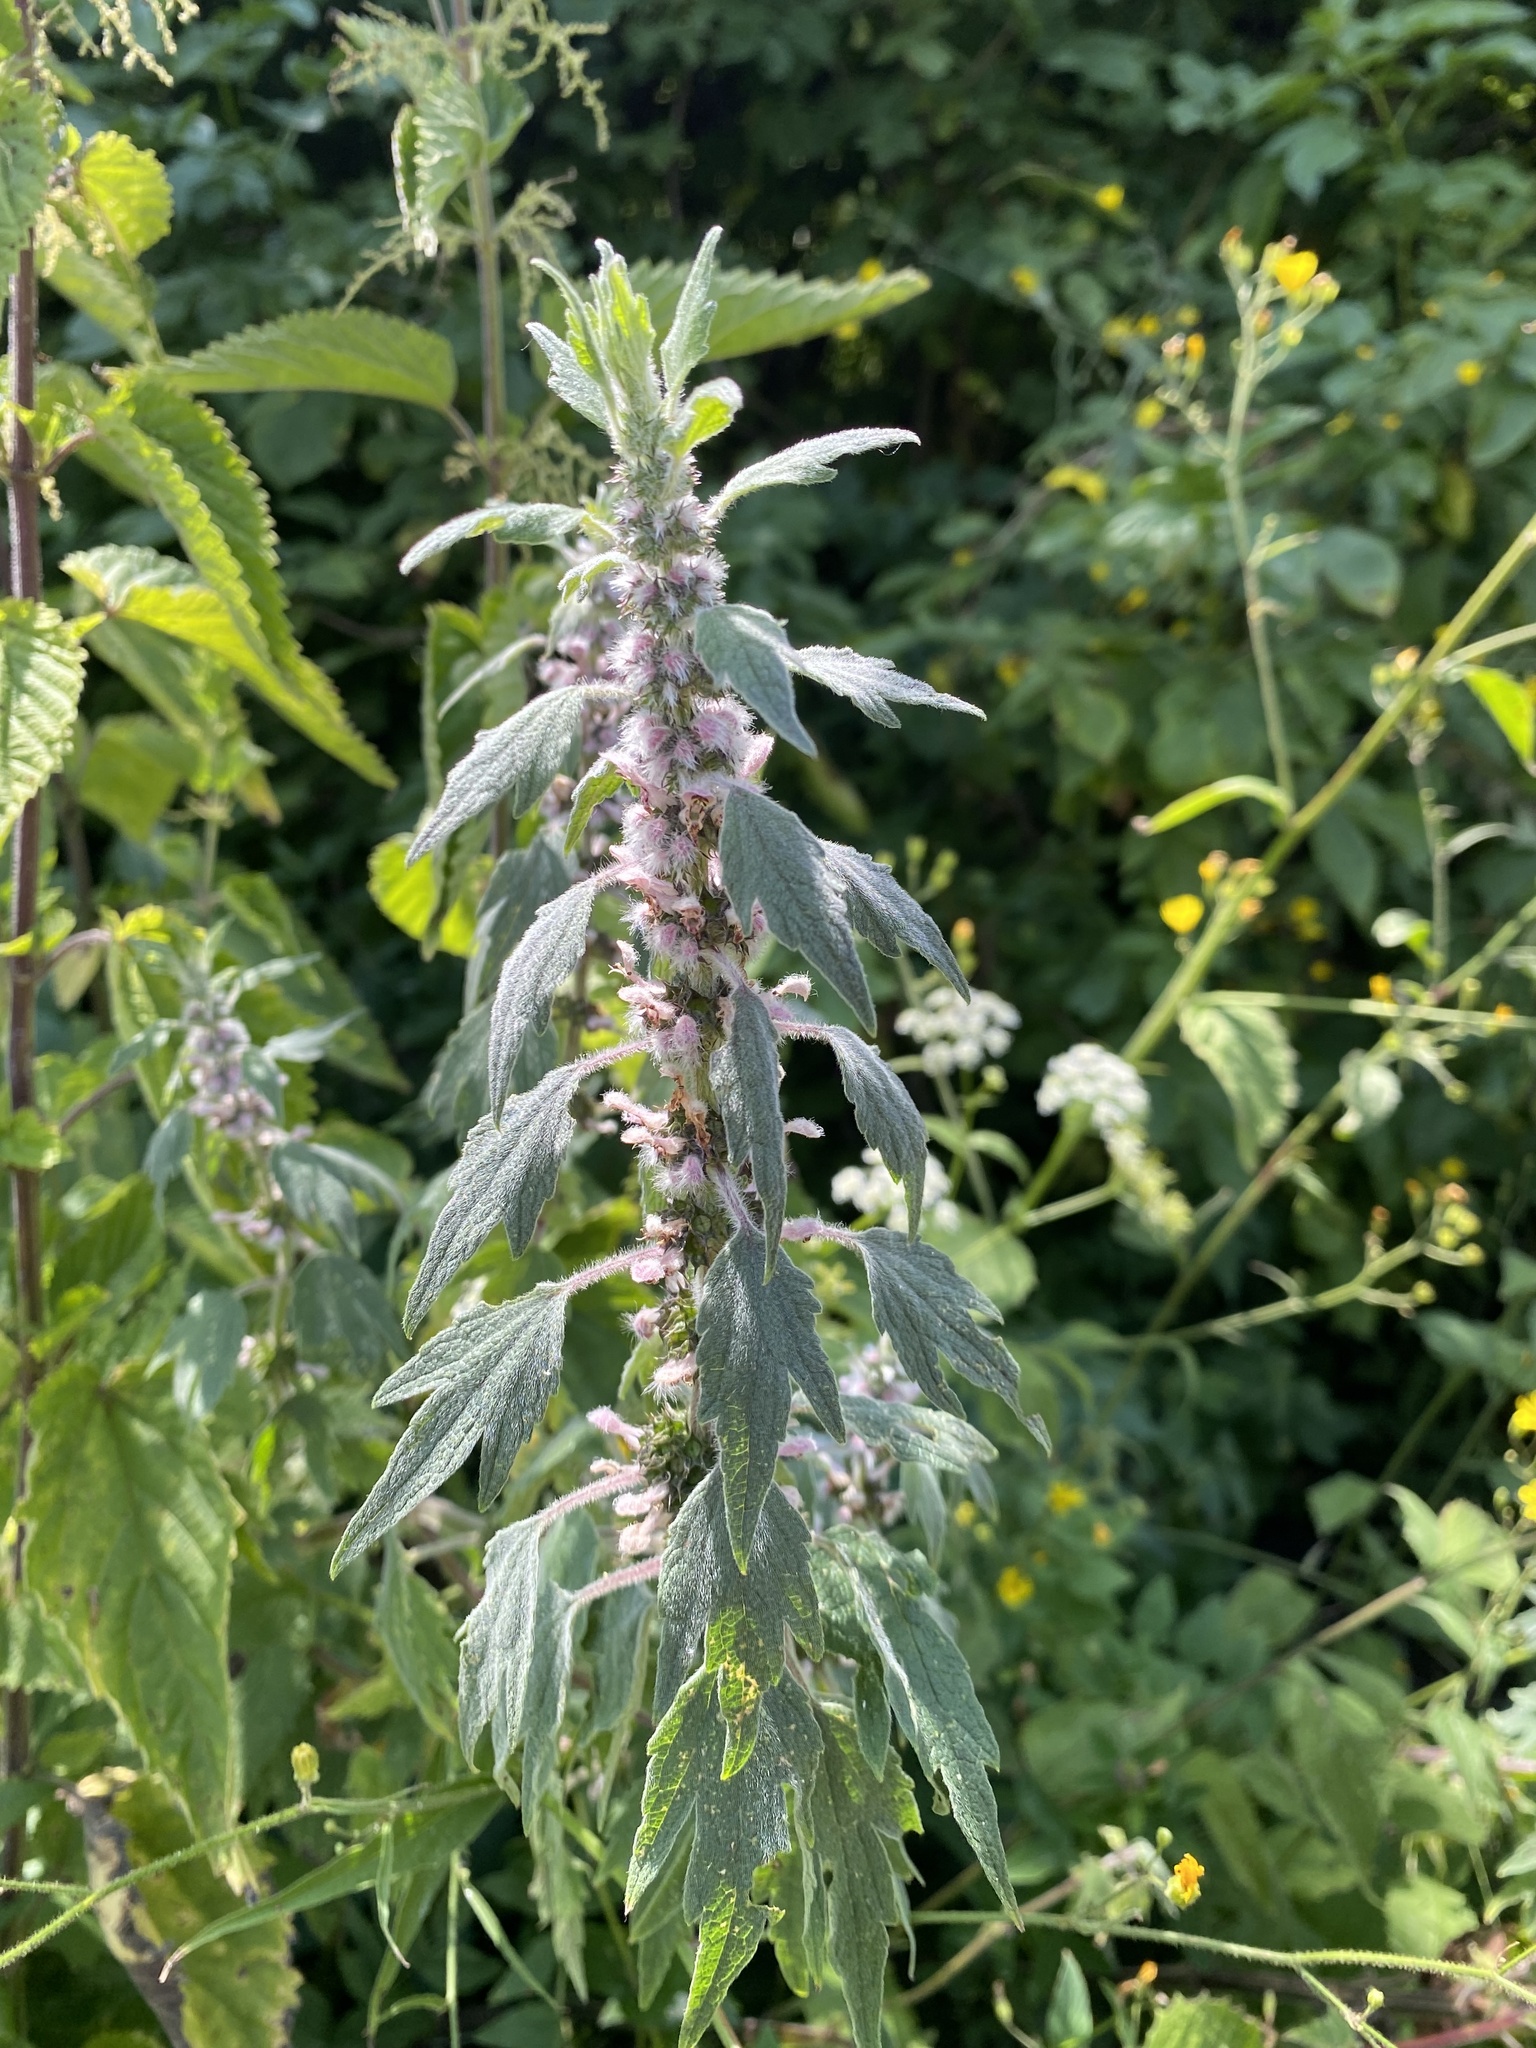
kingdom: Plantae
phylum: Tracheophyta
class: Magnoliopsida
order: Lamiales
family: Lamiaceae
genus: Leonurus
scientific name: Leonurus quinquelobatus
